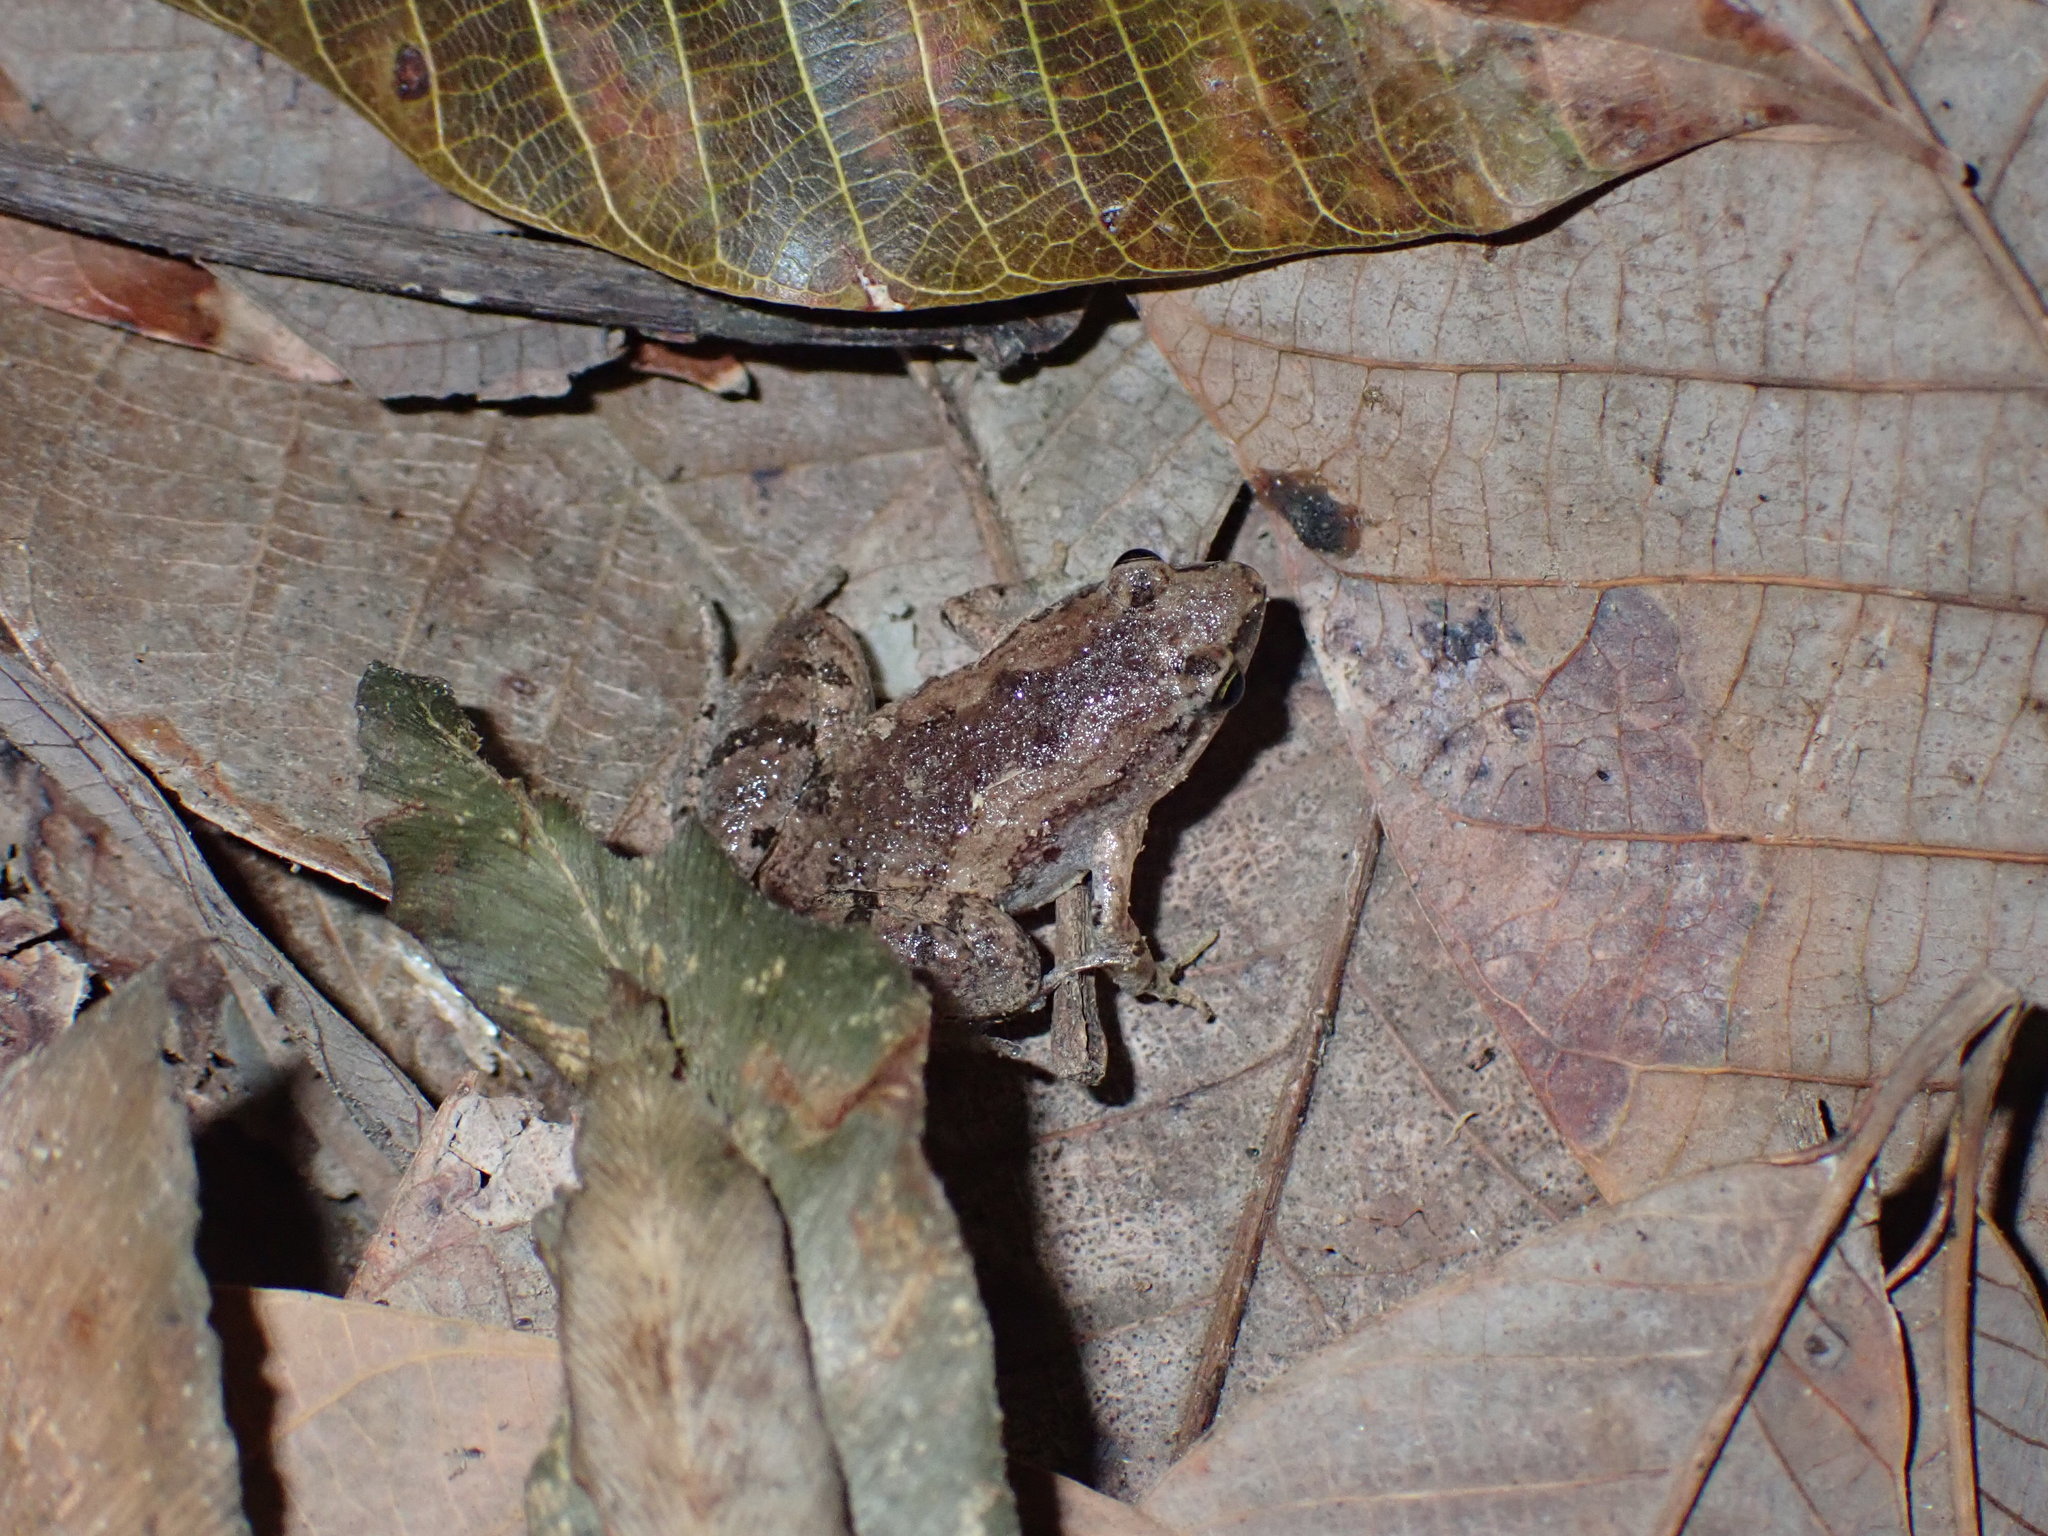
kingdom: Animalia
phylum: Chordata
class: Amphibia
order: Anura
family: Microhylidae
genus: Microhyla
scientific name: Microhyla mukhlesuri
